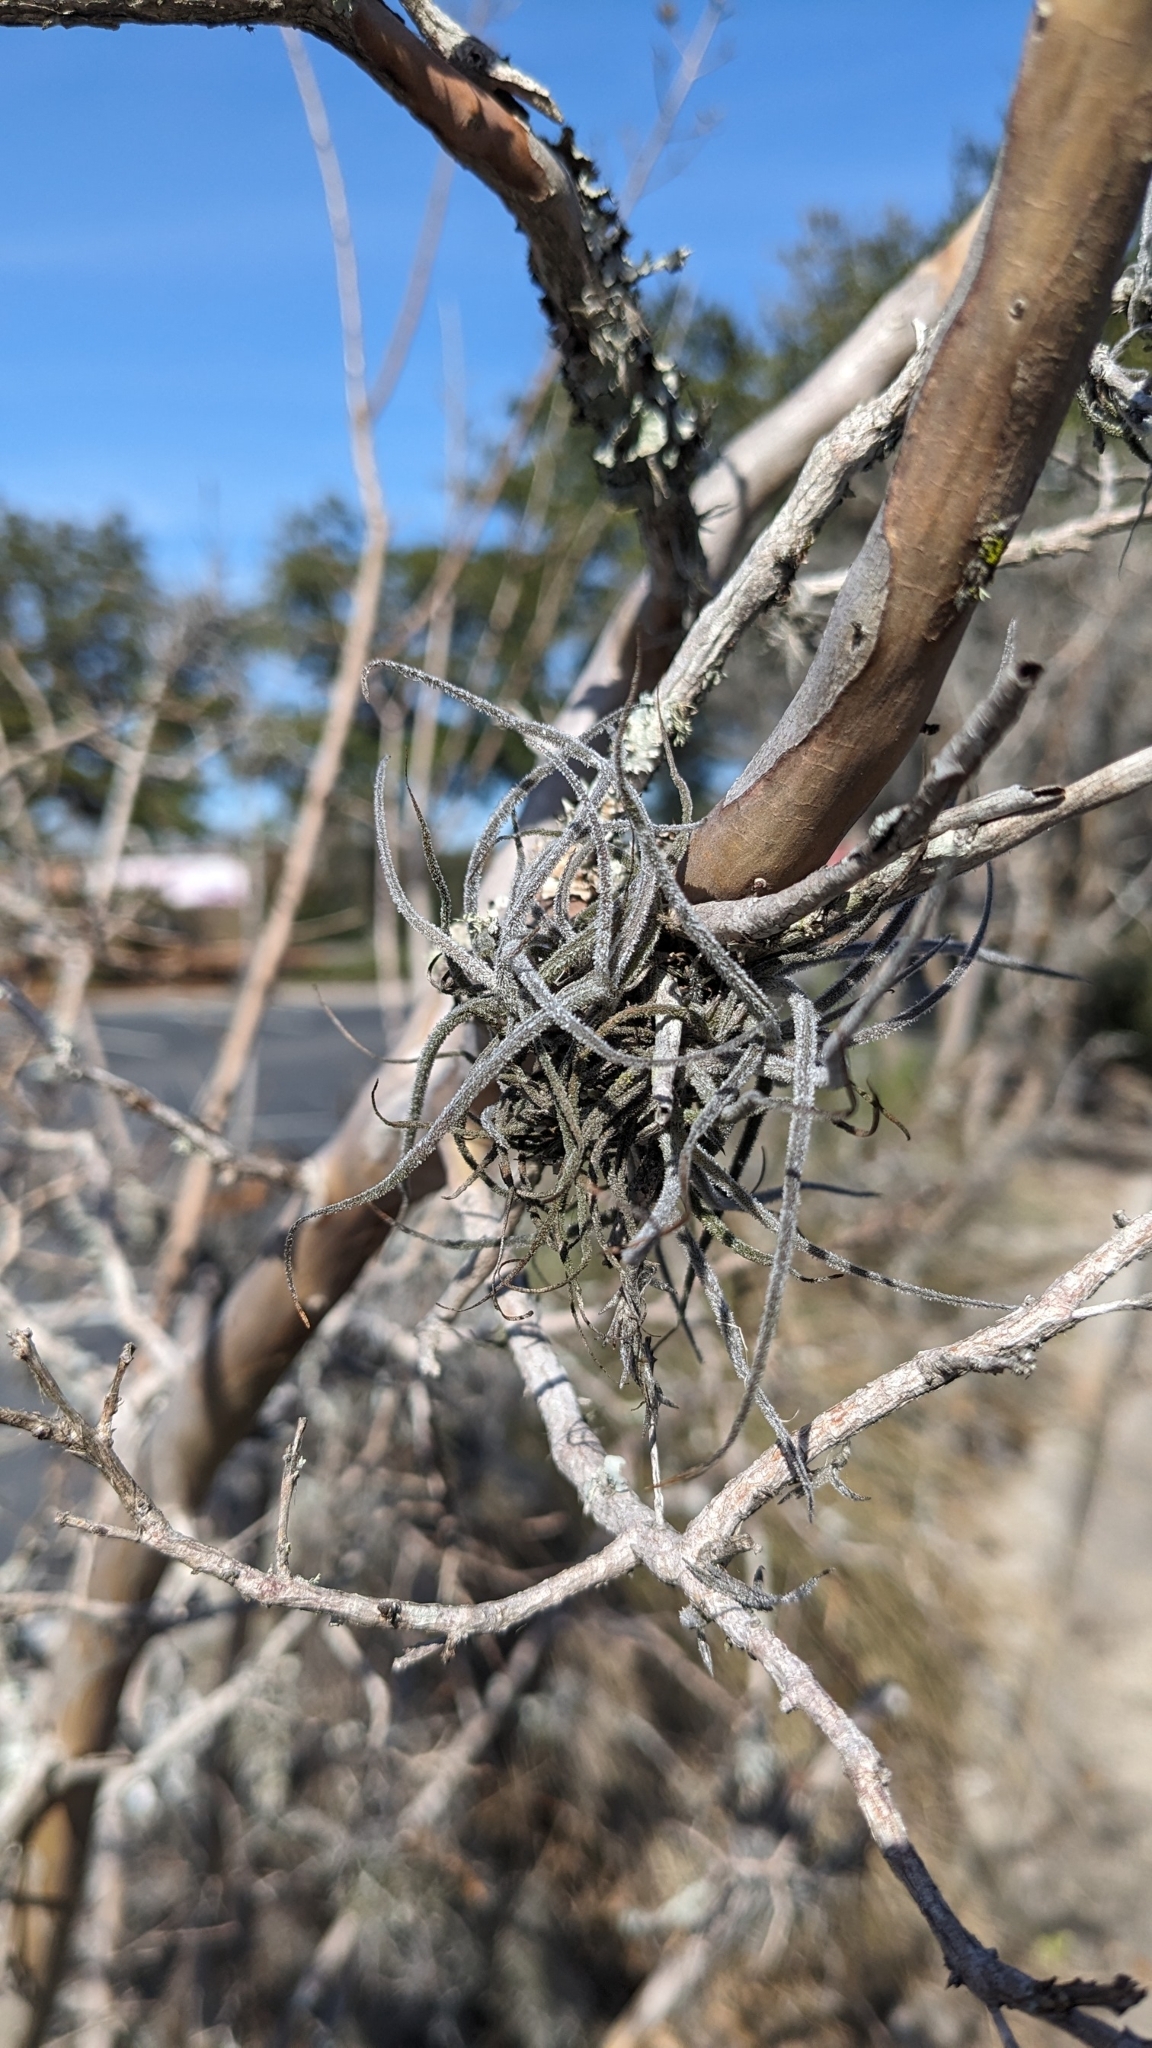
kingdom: Plantae
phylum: Tracheophyta
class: Liliopsida
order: Poales
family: Bromeliaceae
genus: Tillandsia
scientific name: Tillandsia recurvata
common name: Small ballmoss
